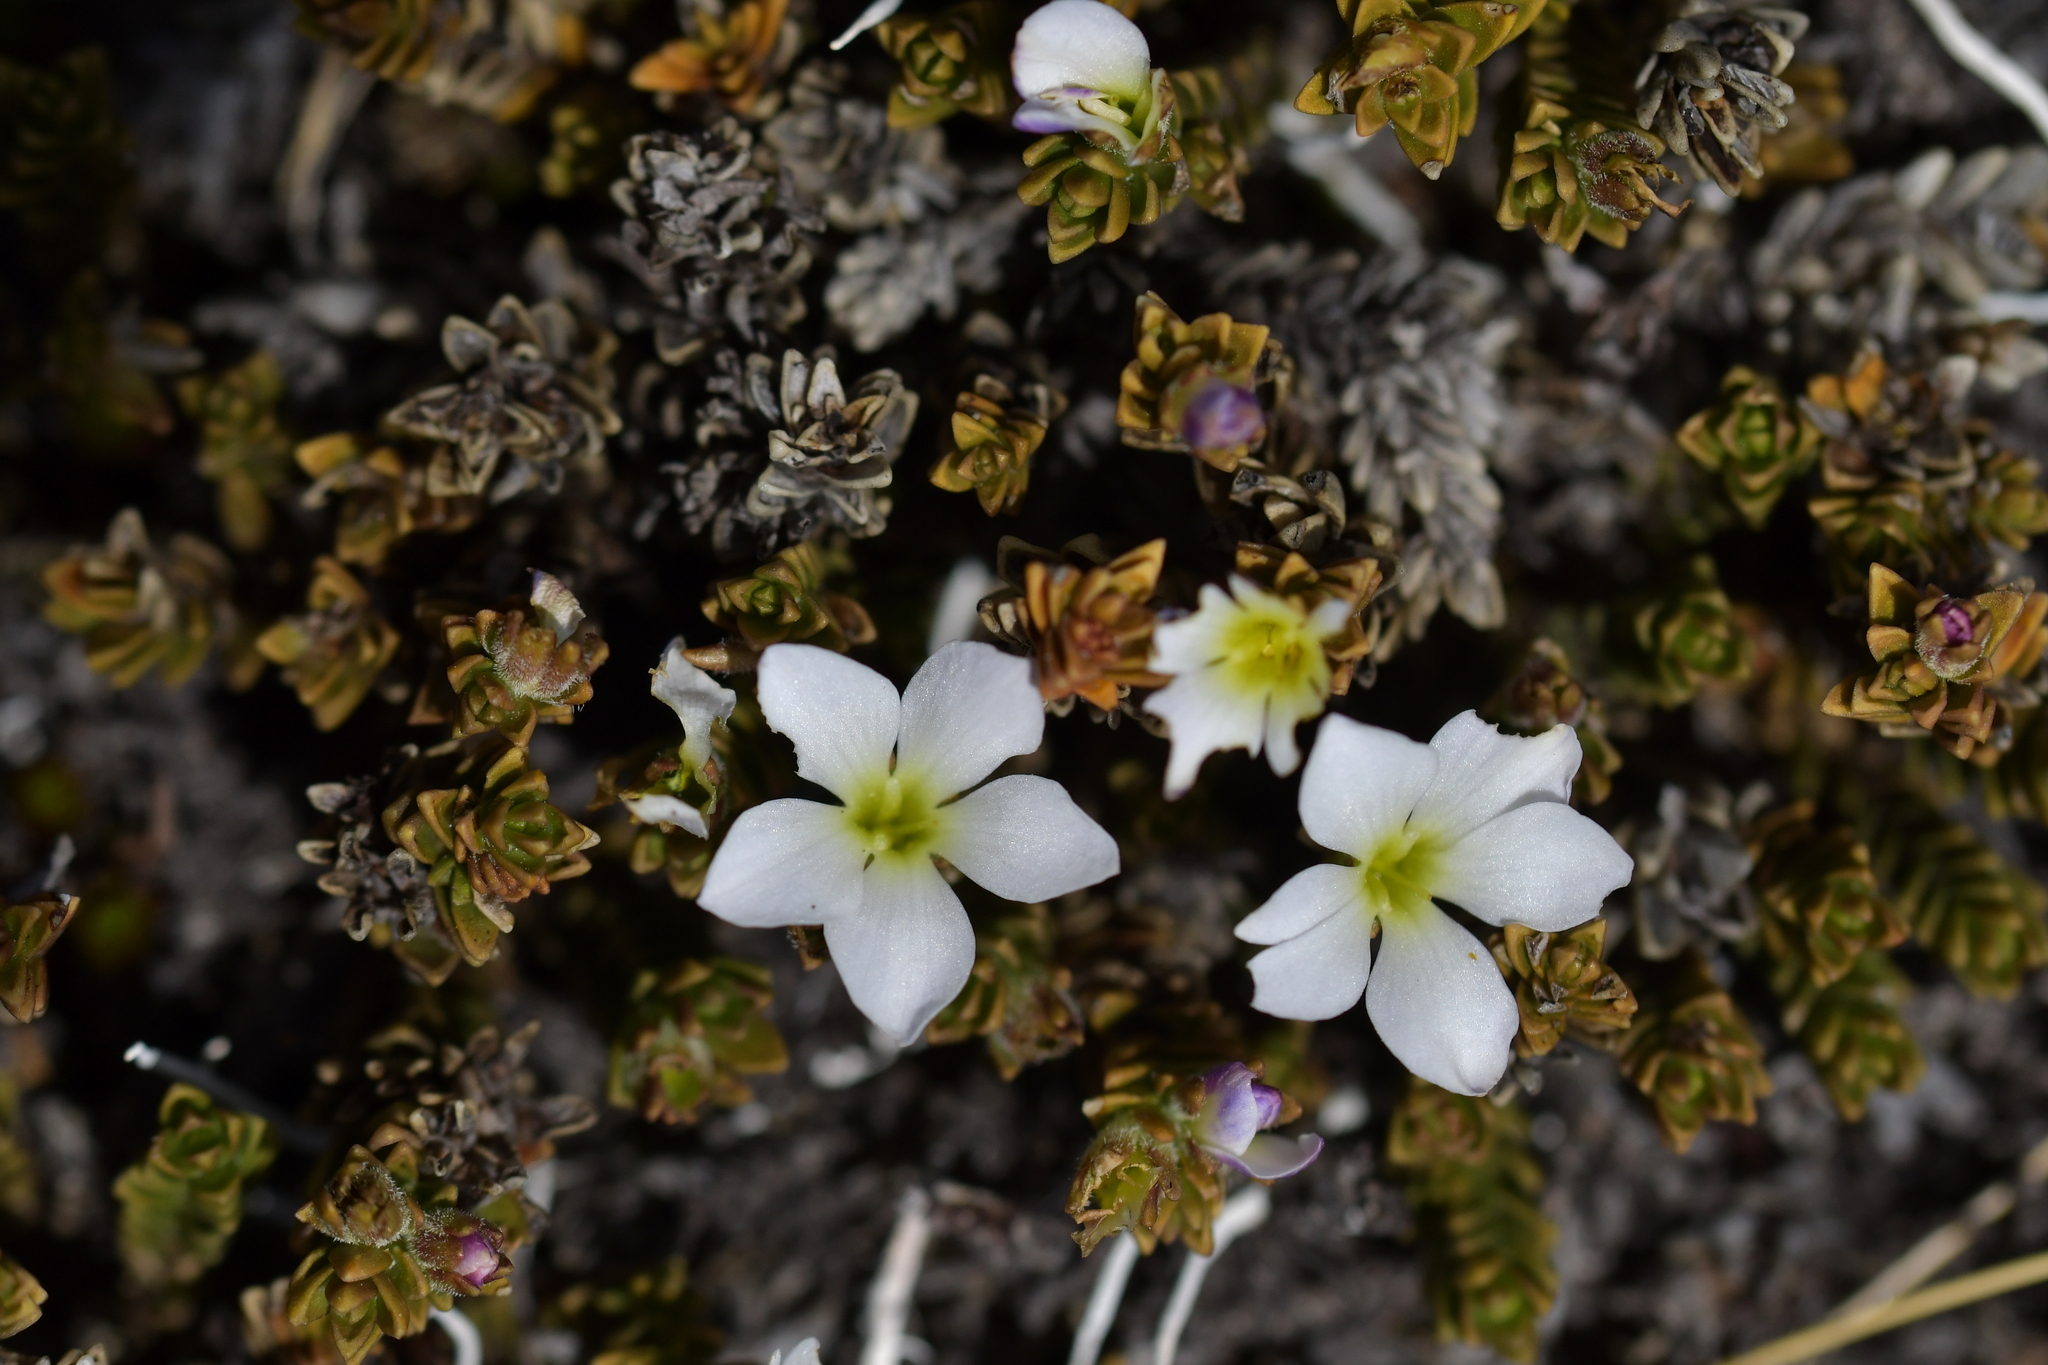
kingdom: Plantae
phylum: Tracheophyta
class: Magnoliopsida
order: Lamiales
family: Plantaginaceae
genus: Veronica
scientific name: Veronica densifolia
